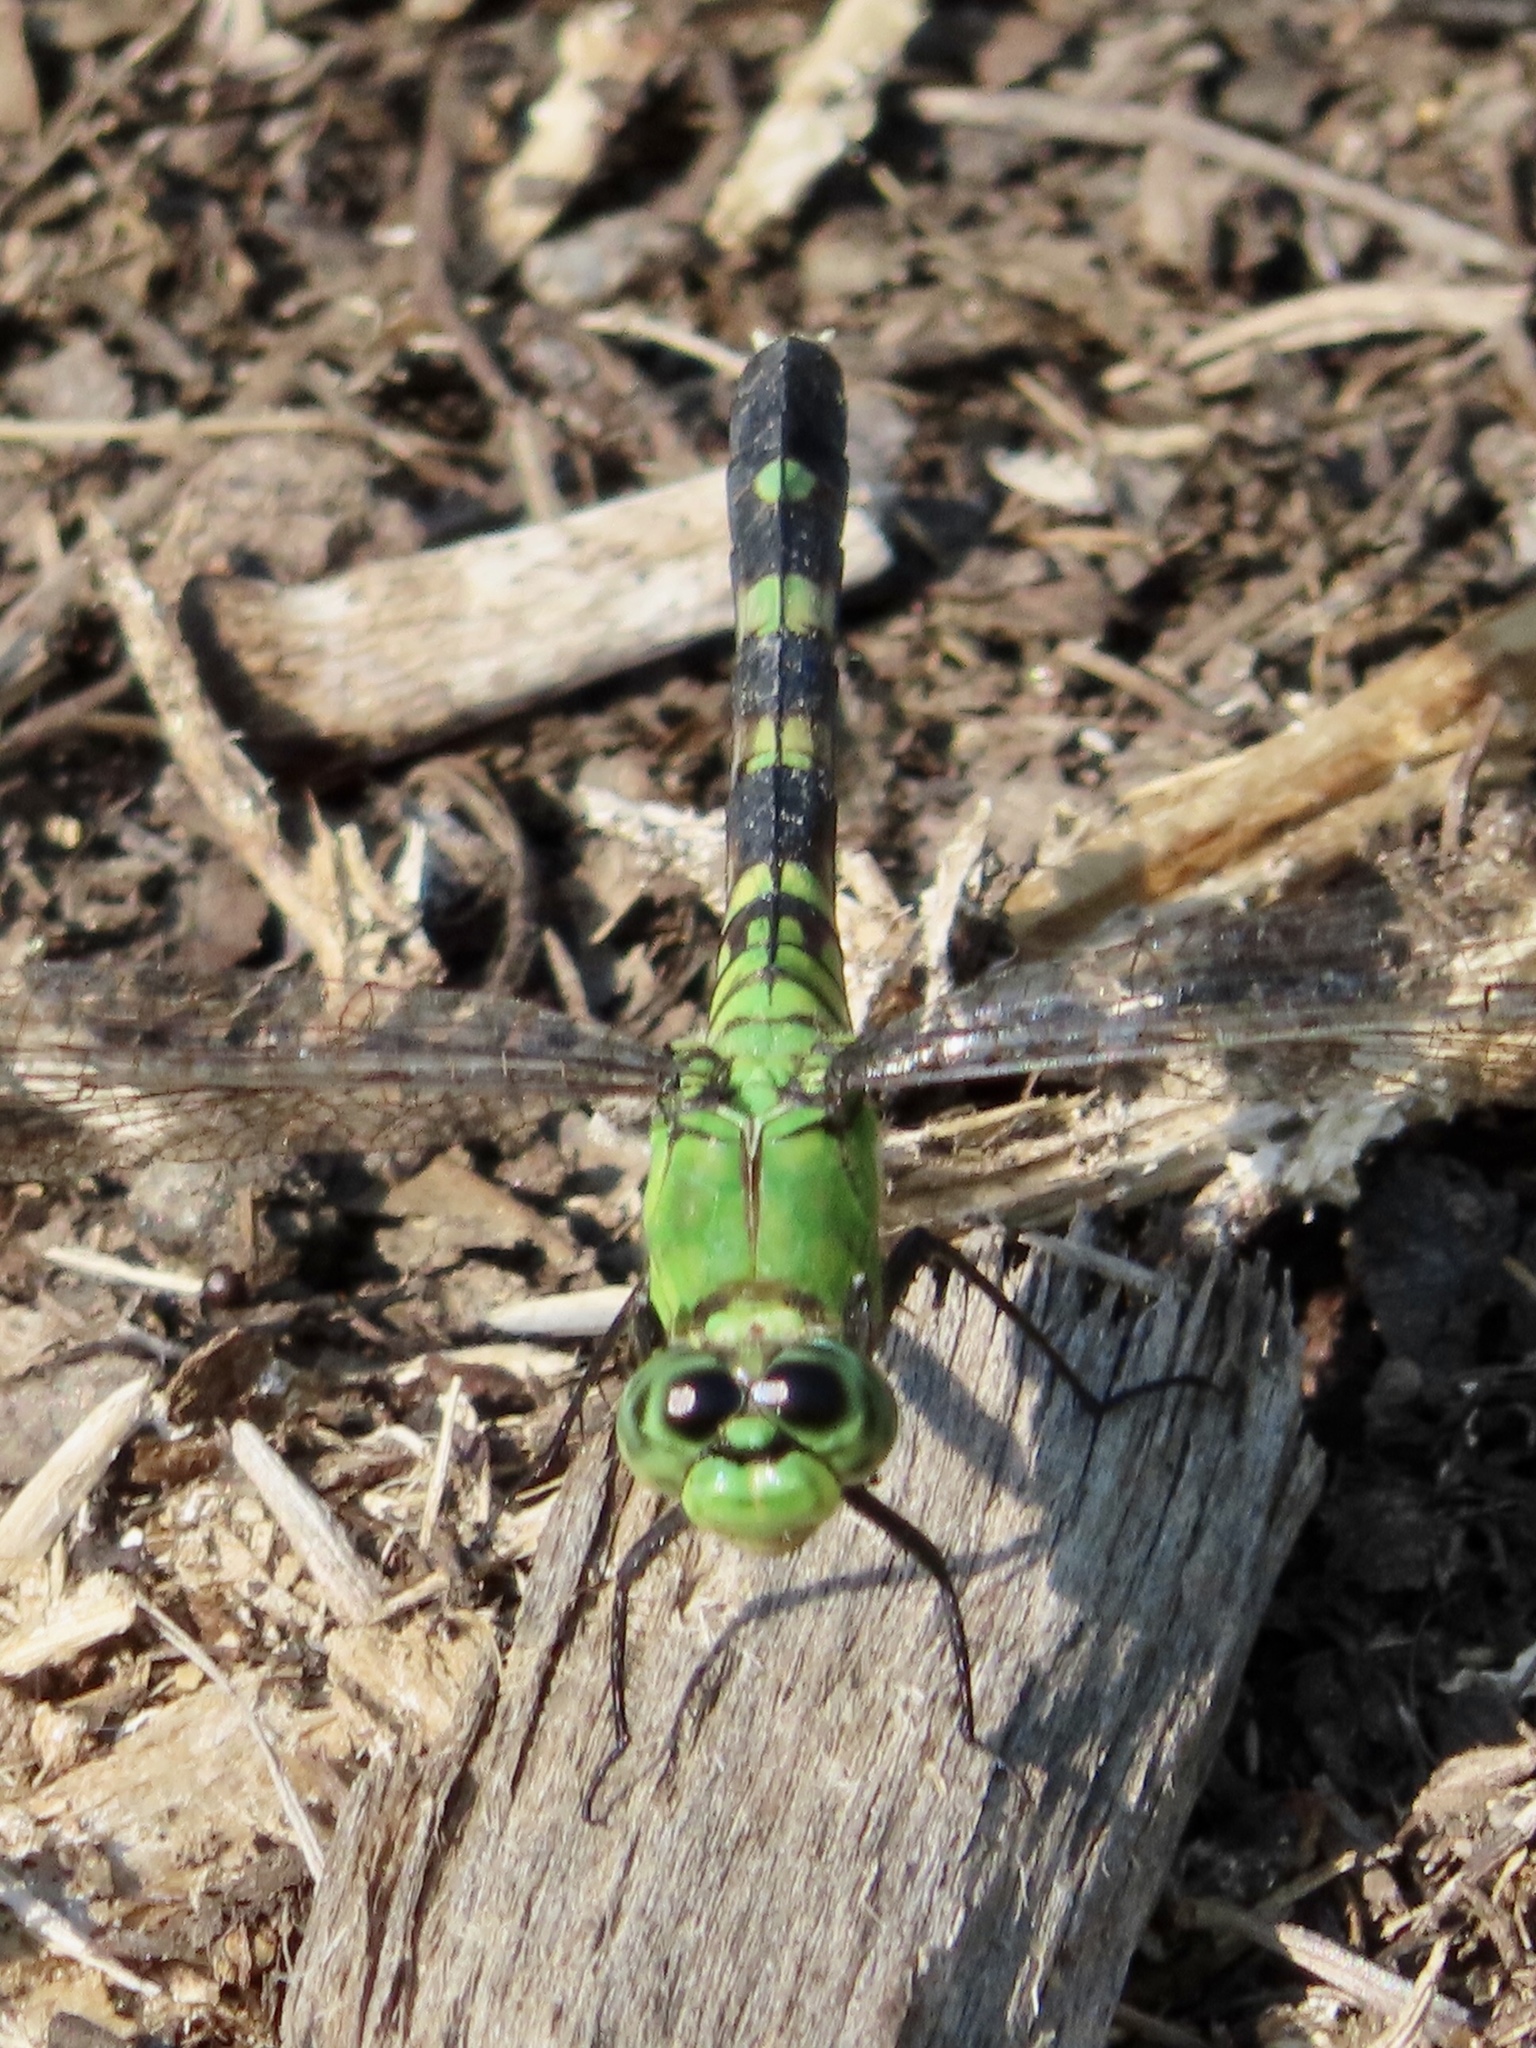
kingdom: Animalia
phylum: Arthropoda
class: Insecta
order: Odonata
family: Libellulidae
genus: Erythemis
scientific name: Erythemis simplicicollis
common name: Eastern pondhawk
